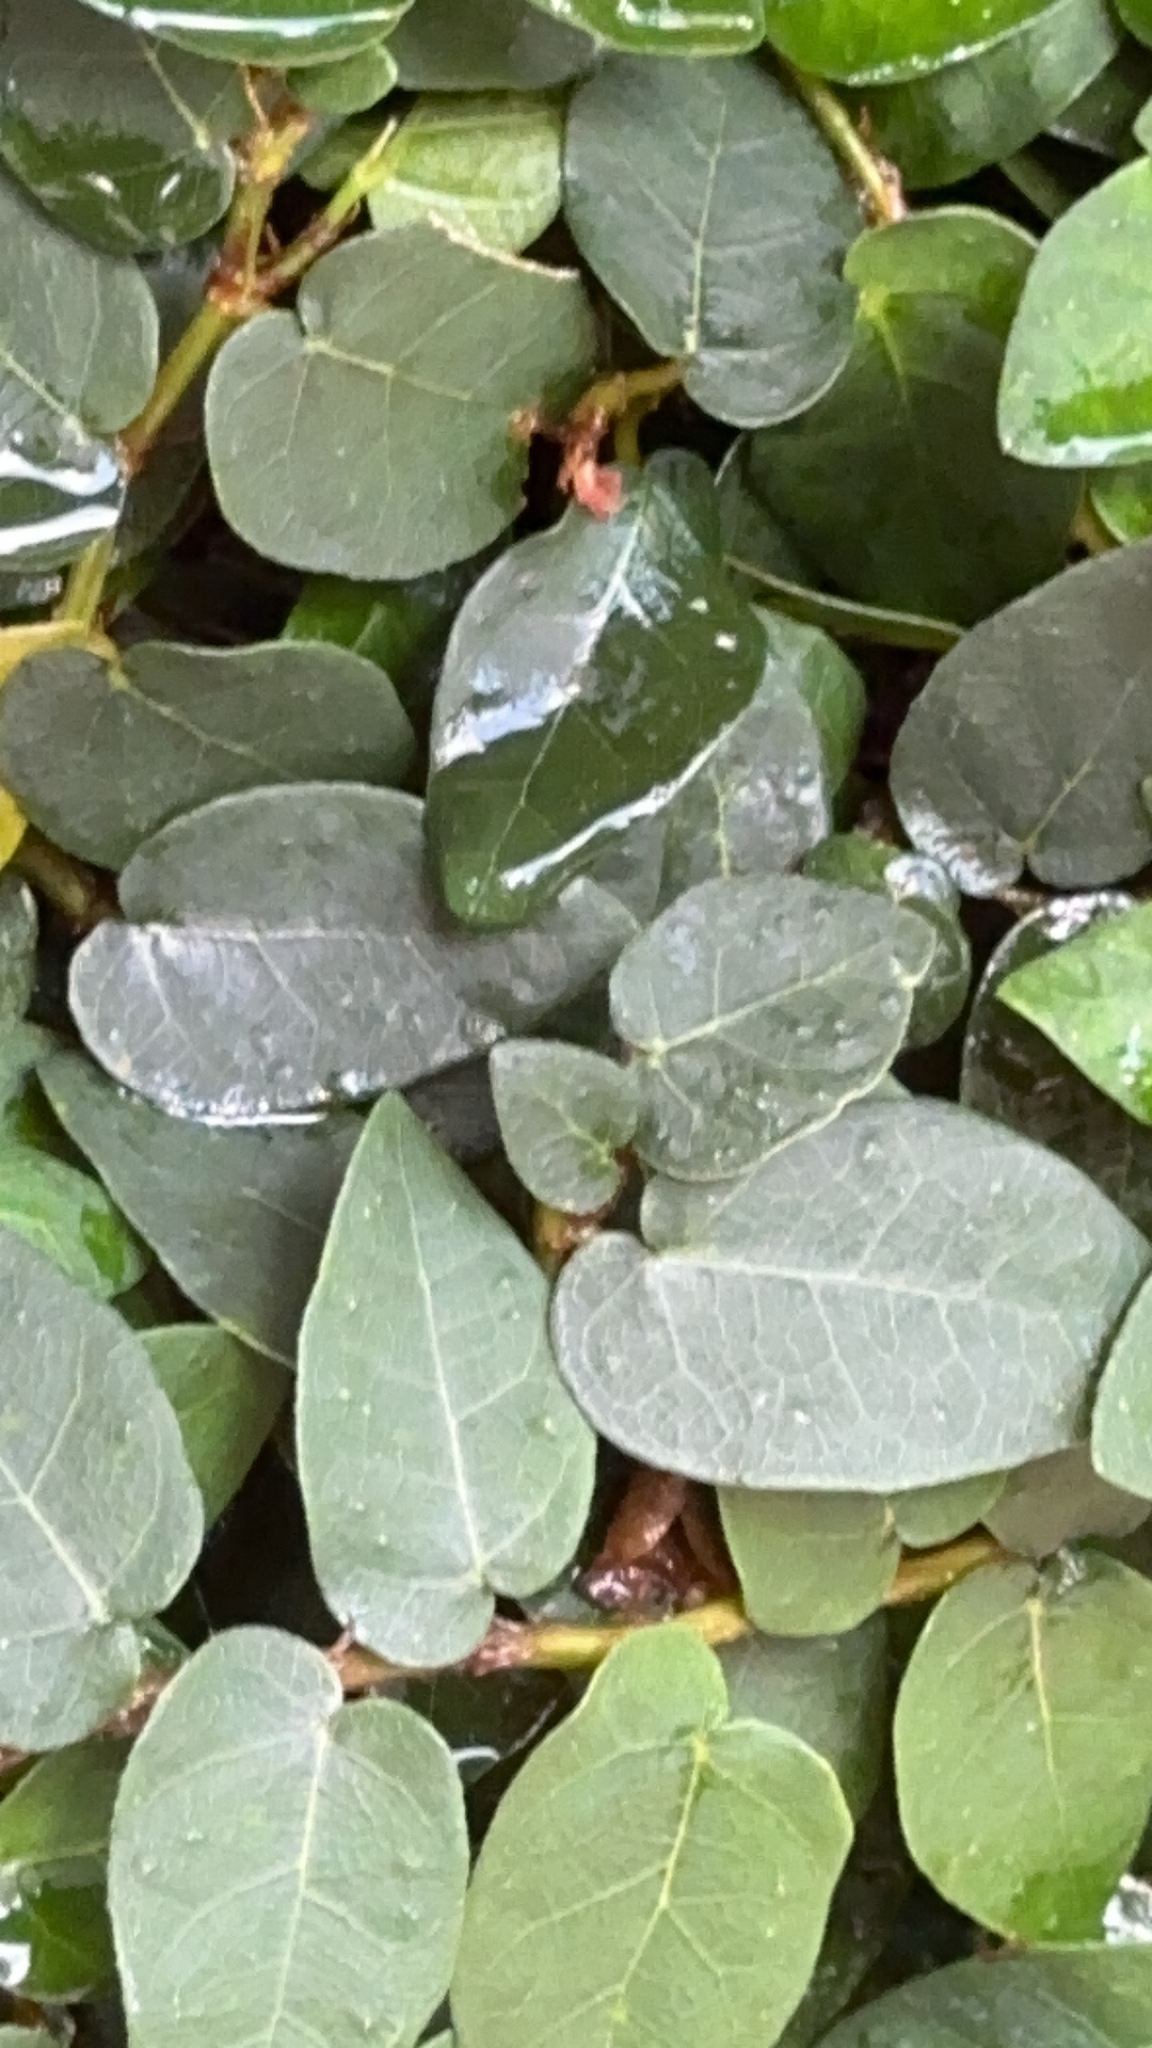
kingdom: Plantae
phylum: Tracheophyta
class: Magnoliopsida
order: Rosales
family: Moraceae
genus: Ficus
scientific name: Ficus pumila
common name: Climbingfig
